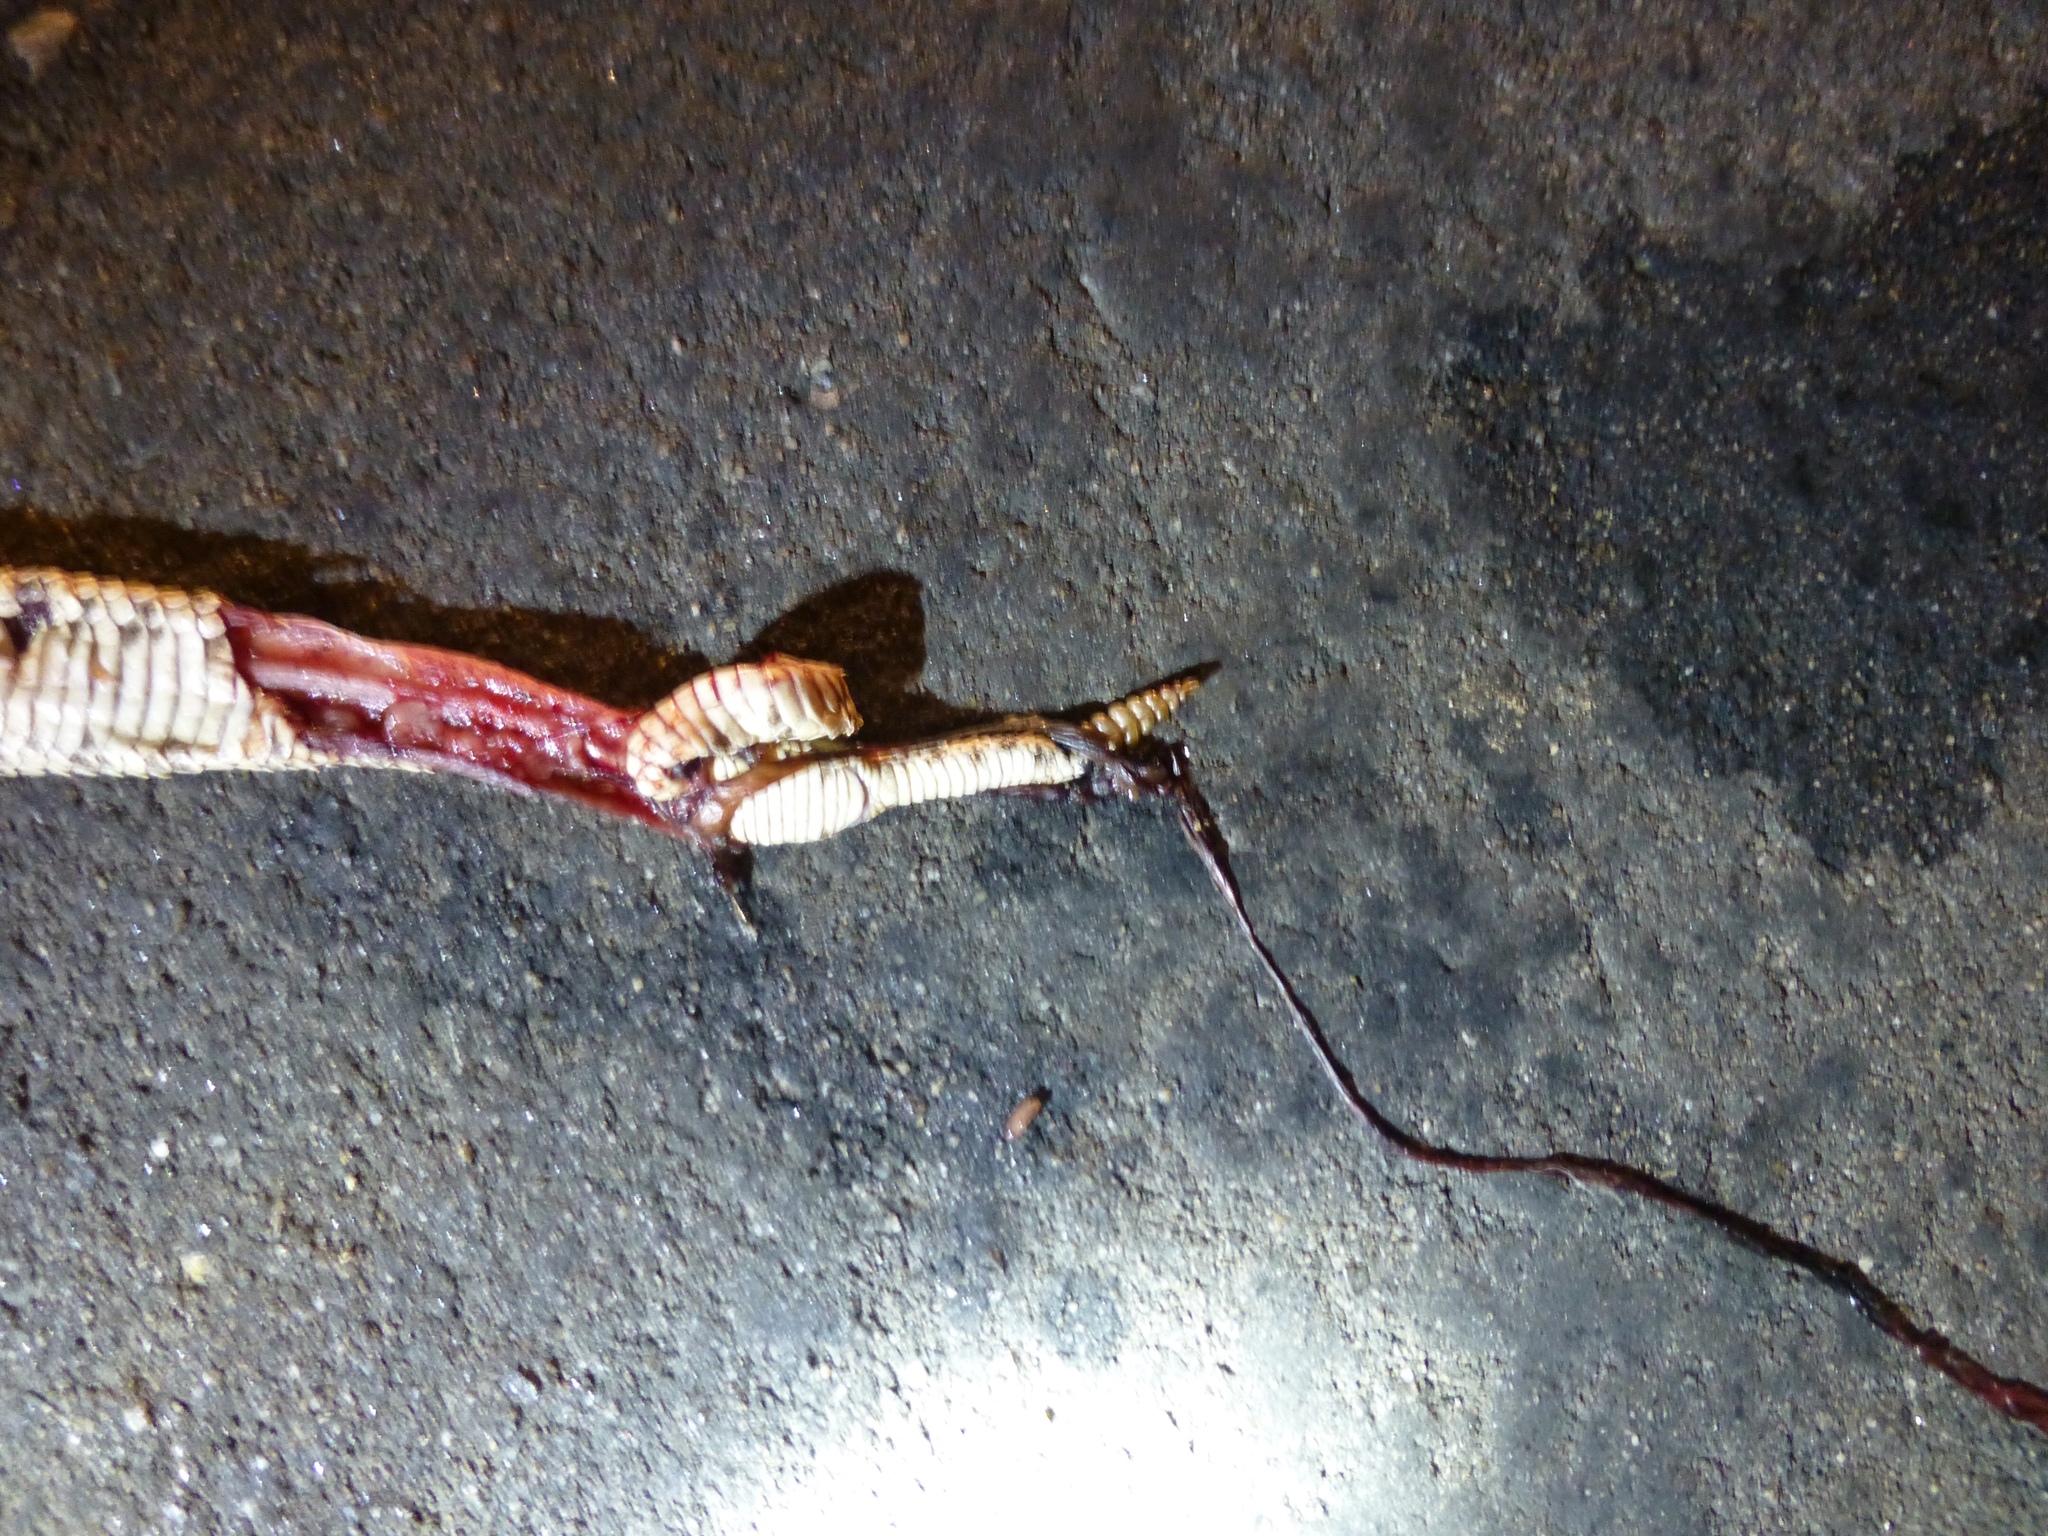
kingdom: Animalia
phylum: Chordata
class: Squamata
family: Viperidae
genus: Crotalus
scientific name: Crotalus
